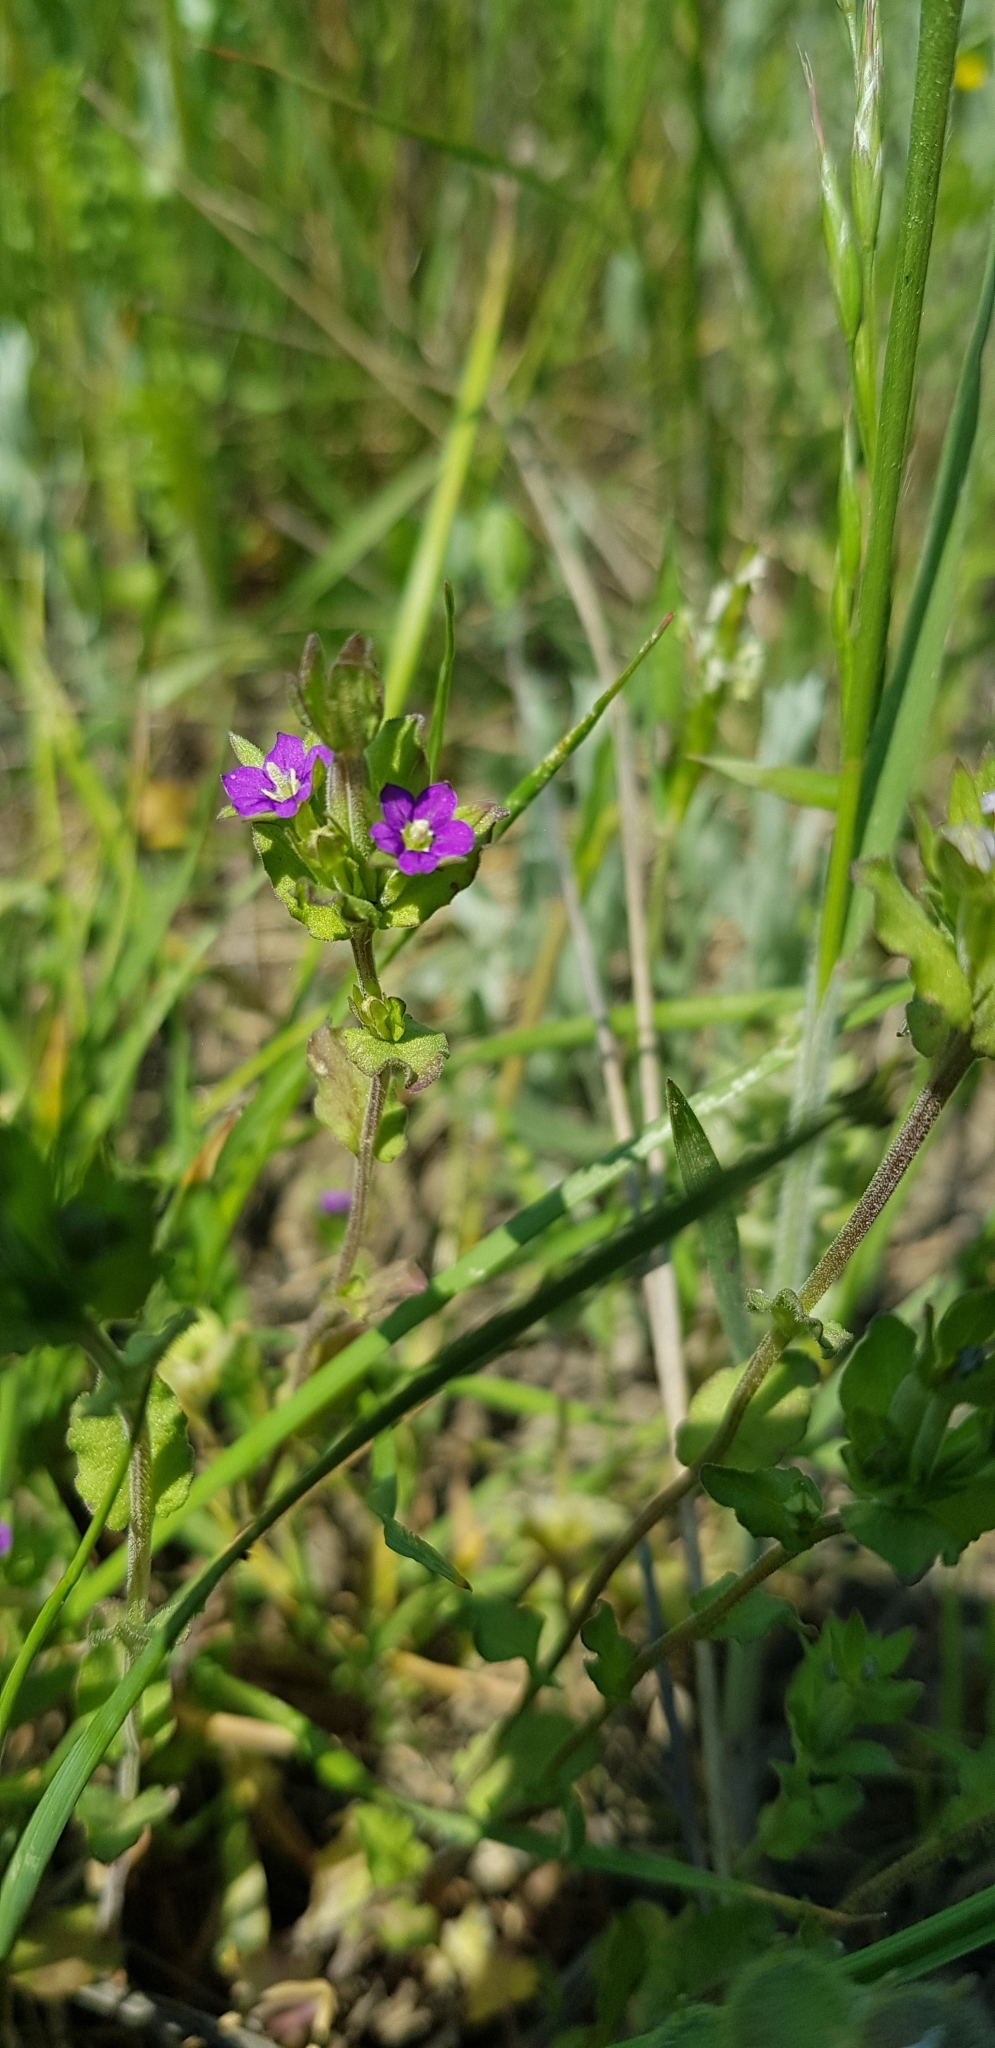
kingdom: Plantae
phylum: Tracheophyta
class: Magnoliopsida
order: Asterales
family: Campanulaceae
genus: Legousia
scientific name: Legousia hybrida
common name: Venus's-looking-glass
